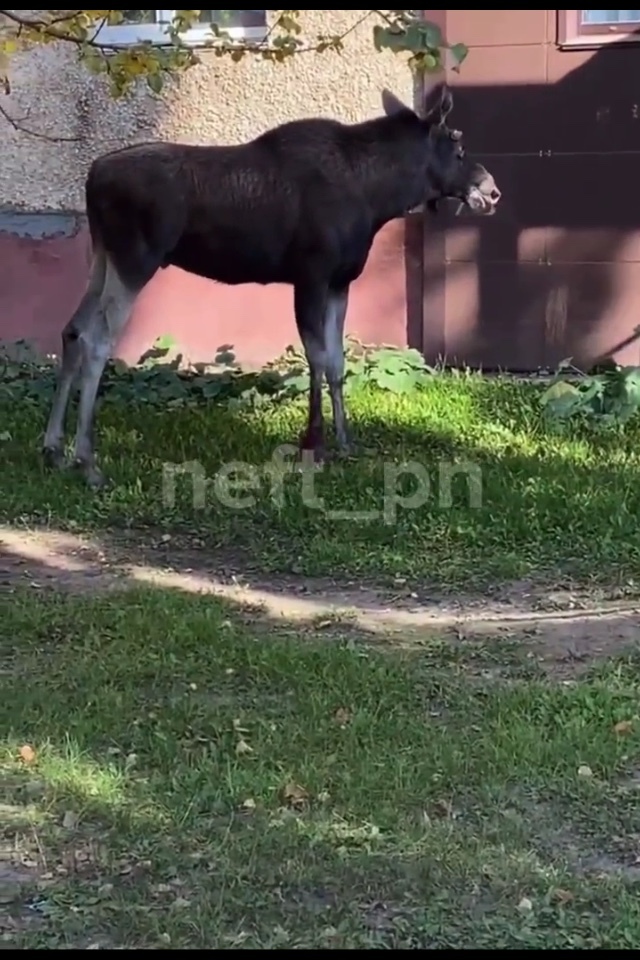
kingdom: Animalia
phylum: Chordata
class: Mammalia
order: Artiodactyla
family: Cervidae
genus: Alces
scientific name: Alces alces
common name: Moose
